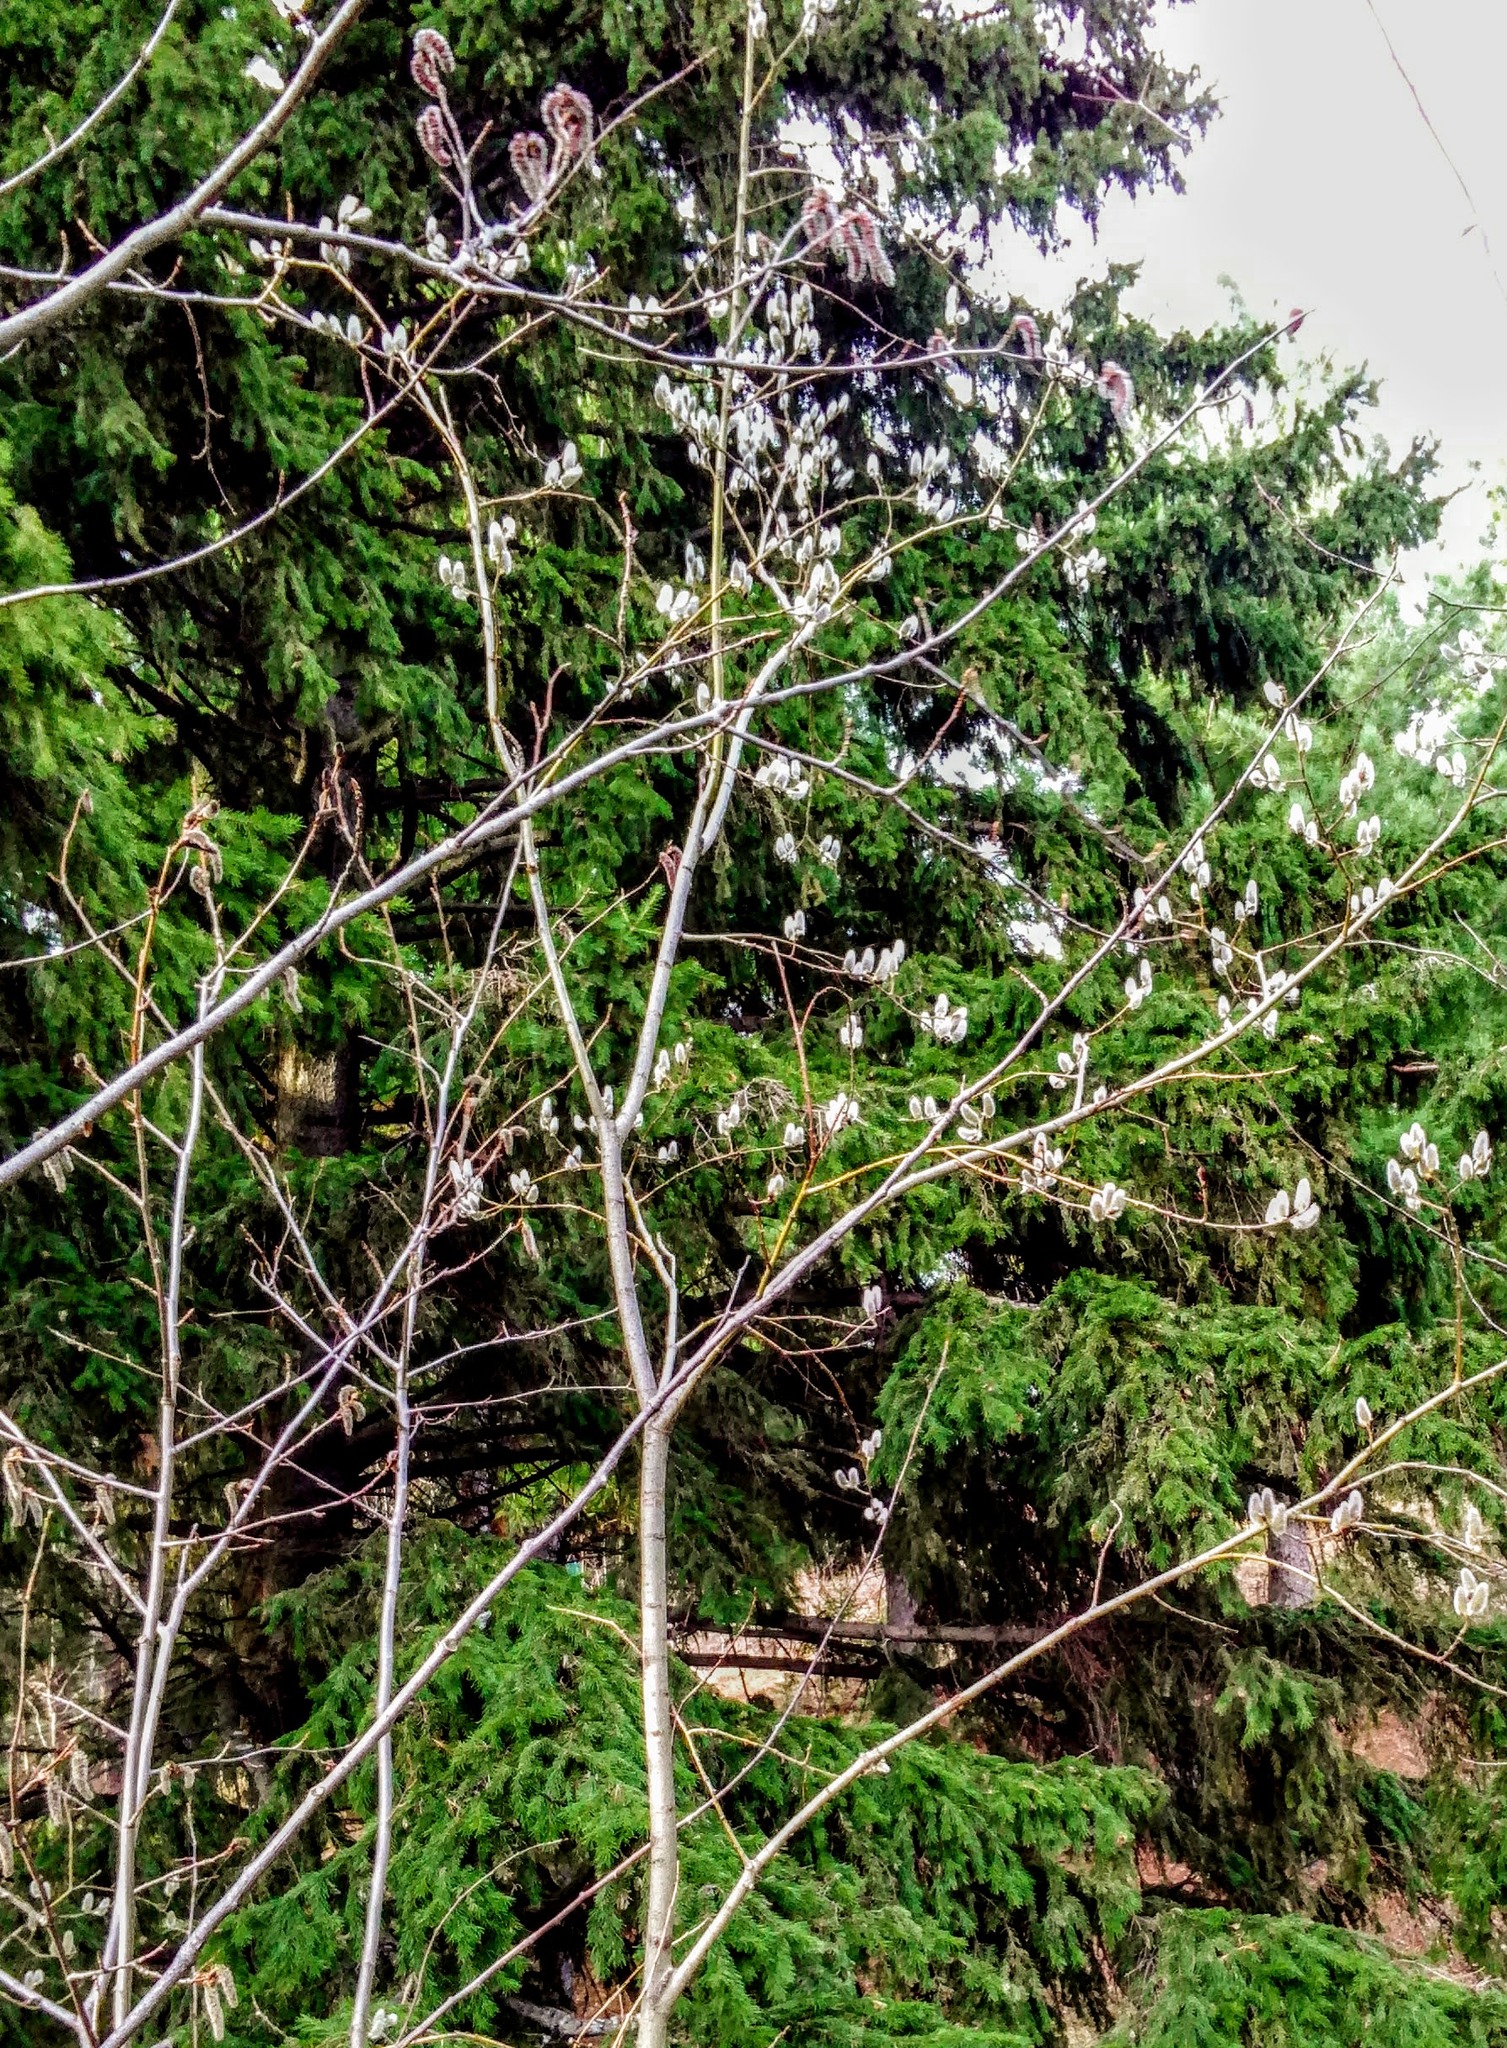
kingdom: Plantae
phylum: Tracheophyta
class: Magnoliopsida
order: Malpighiales
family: Salicaceae
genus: Salix
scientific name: Salix caprea
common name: Goat willow
